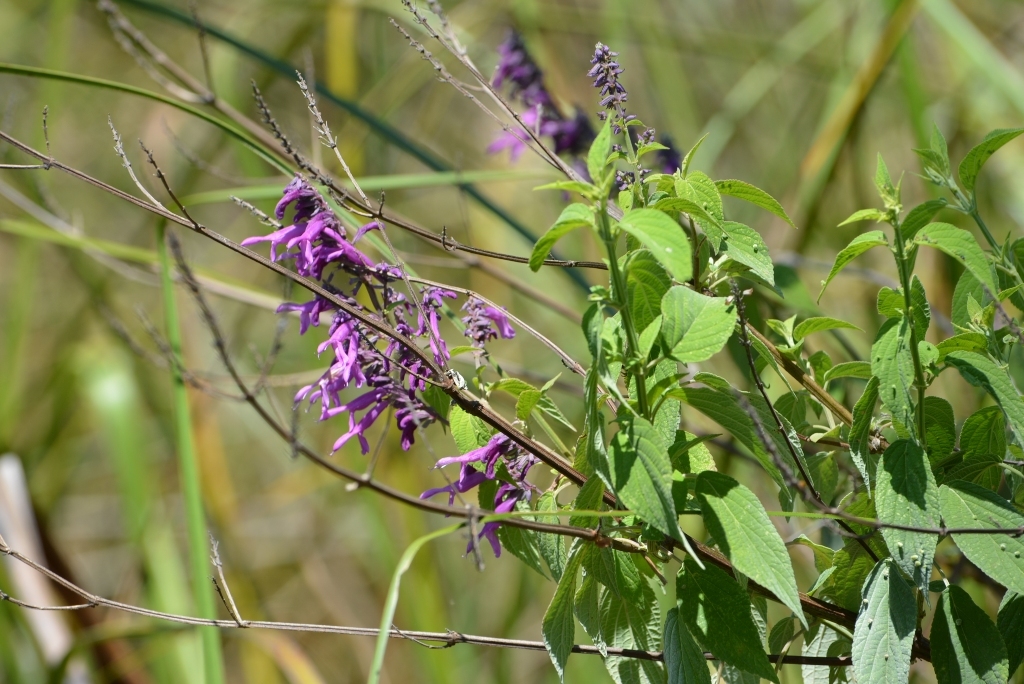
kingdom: Plantae
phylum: Tracheophyta
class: Magnoliopsida
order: Lamiales
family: Lamiaceae
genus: Salvia
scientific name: Salvia purpurea
